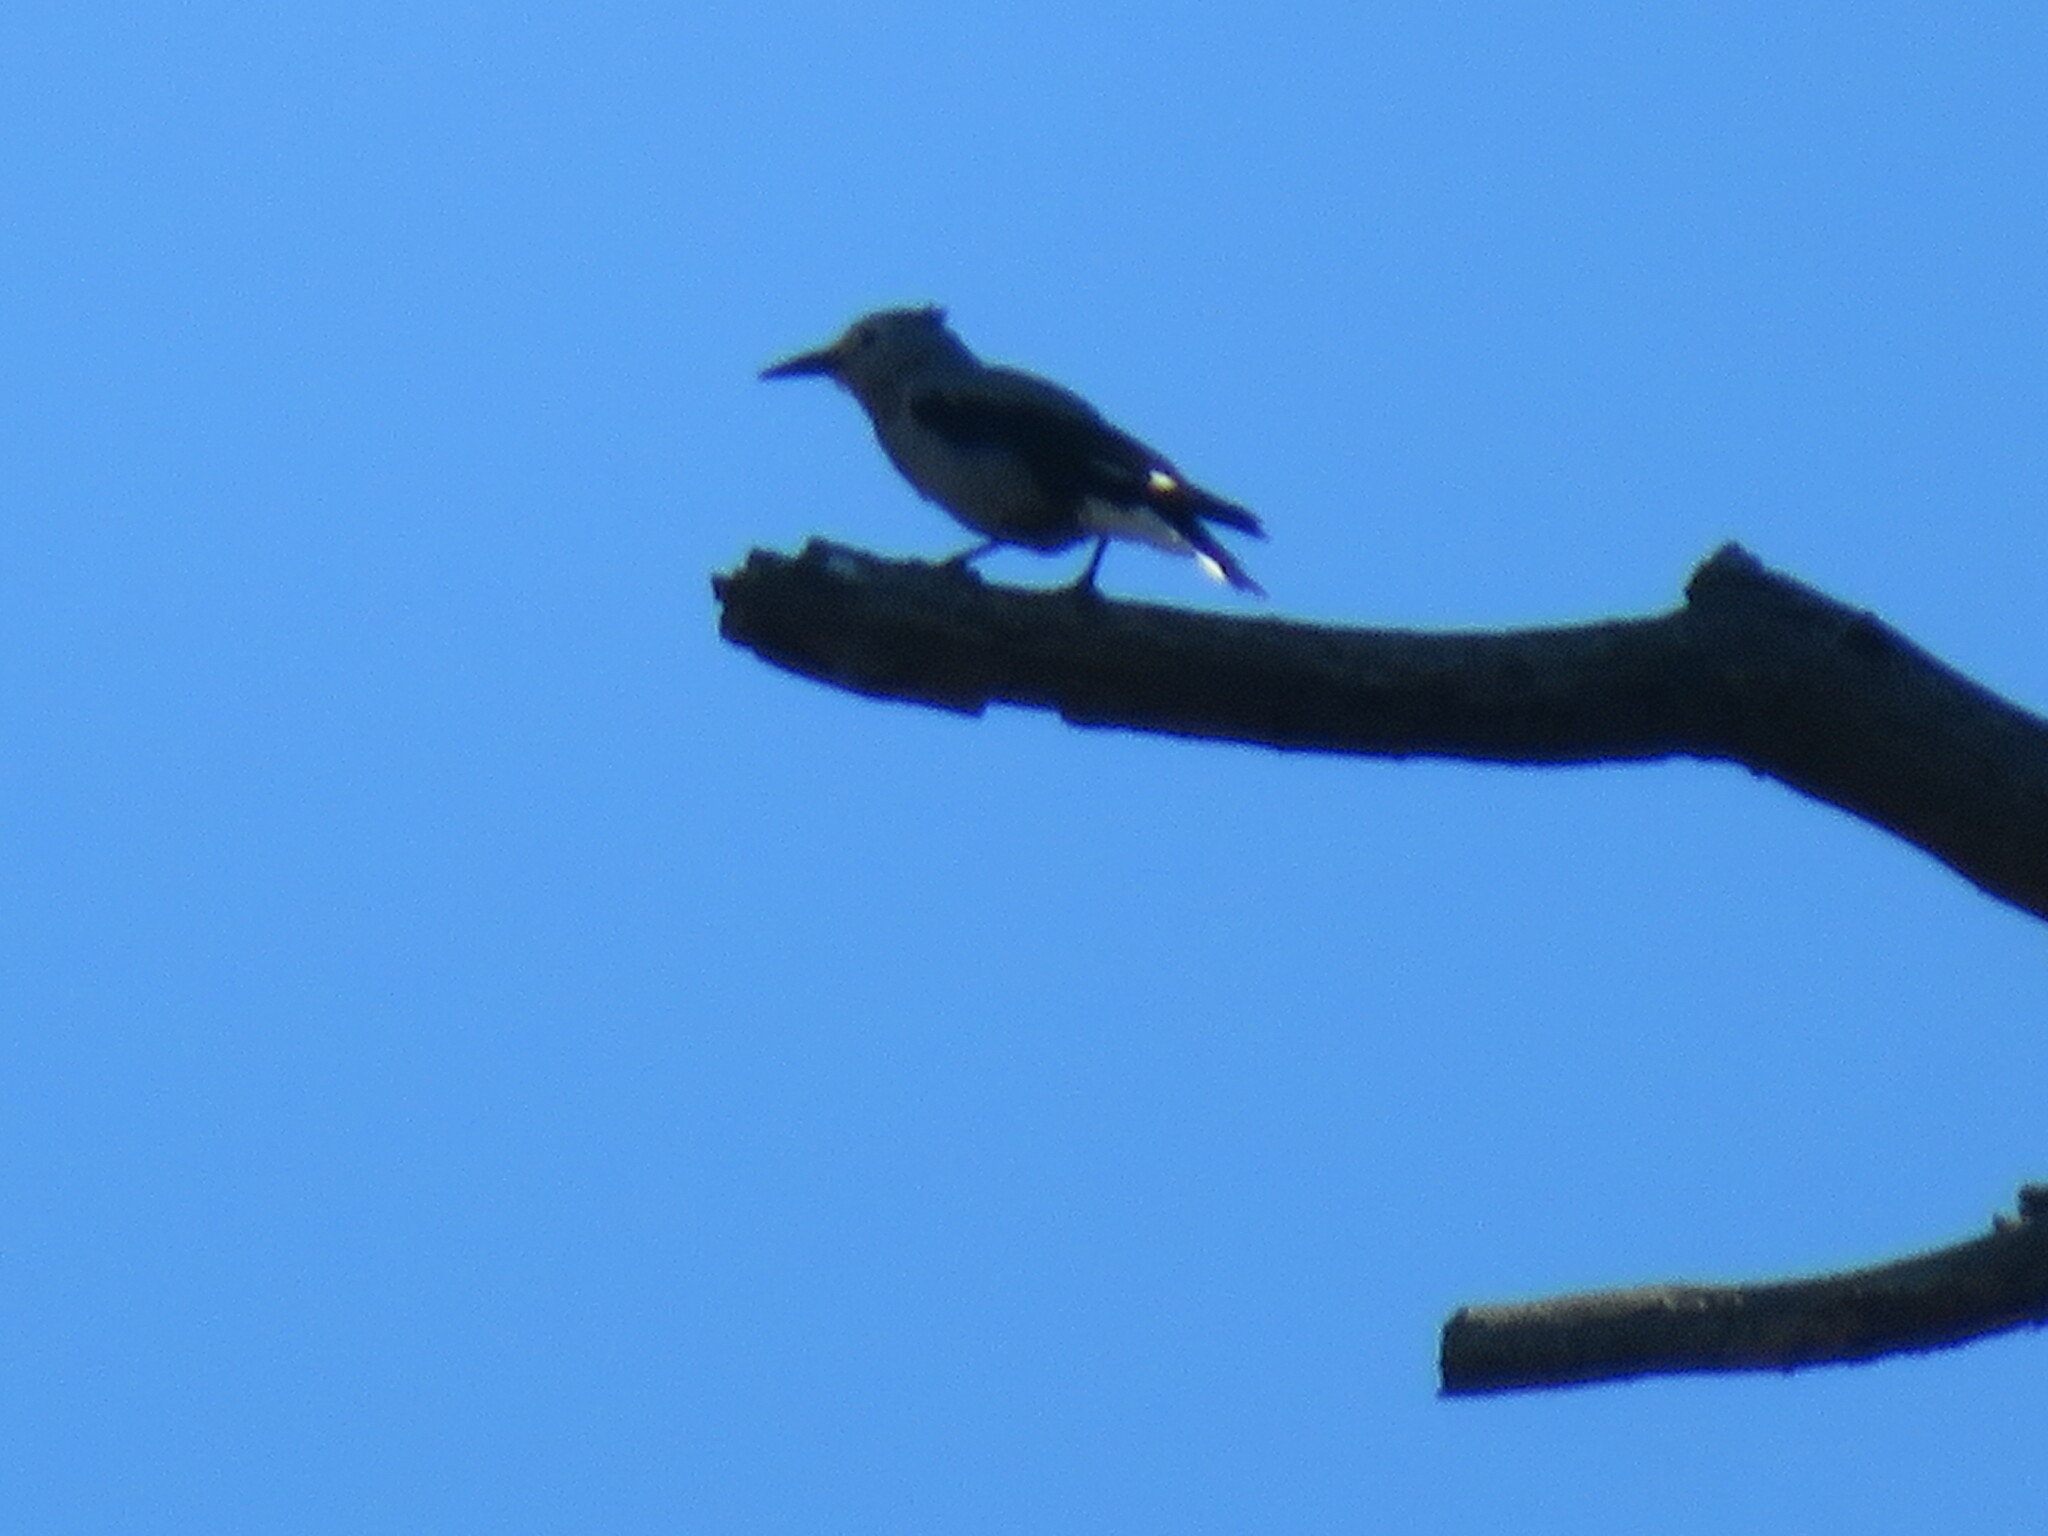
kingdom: Animalia
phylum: Chordata
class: Aves
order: Passeriformes
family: Corvidae
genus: Nucifraga
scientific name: Nucifraga columbiana
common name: Clark's nutcracker
